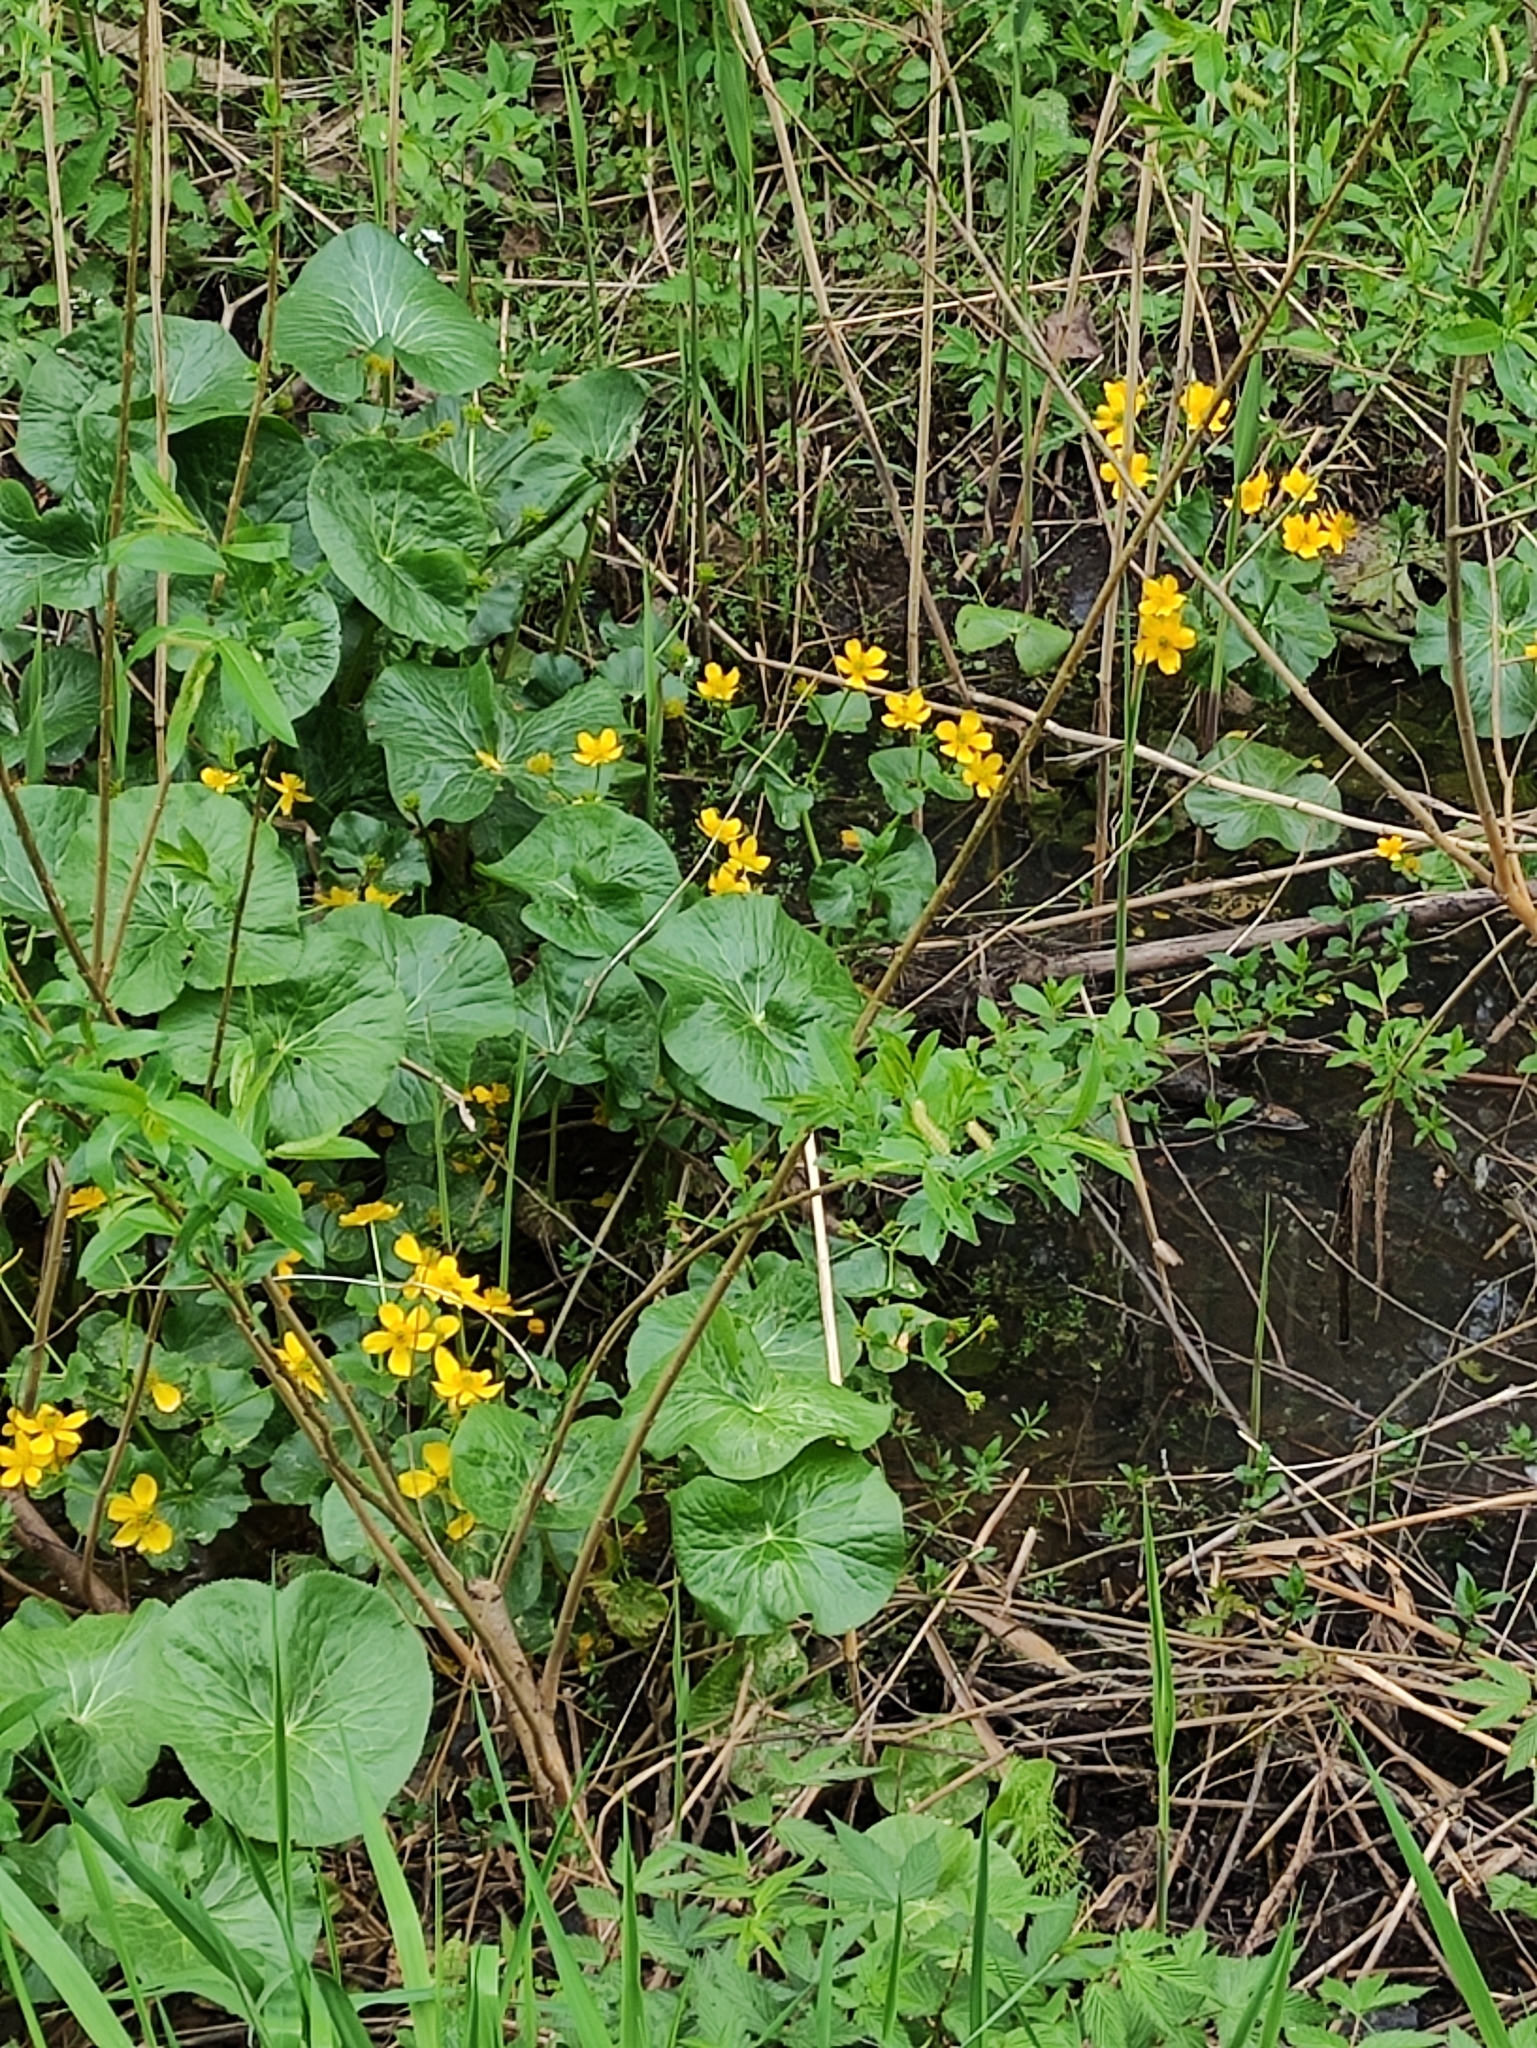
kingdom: Plantae
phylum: Tracheophyta
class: Magnoliopsida
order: Ranunculales
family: Ranunculaceae
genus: Caltha
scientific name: Caltha palustris
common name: Marsh marigold
